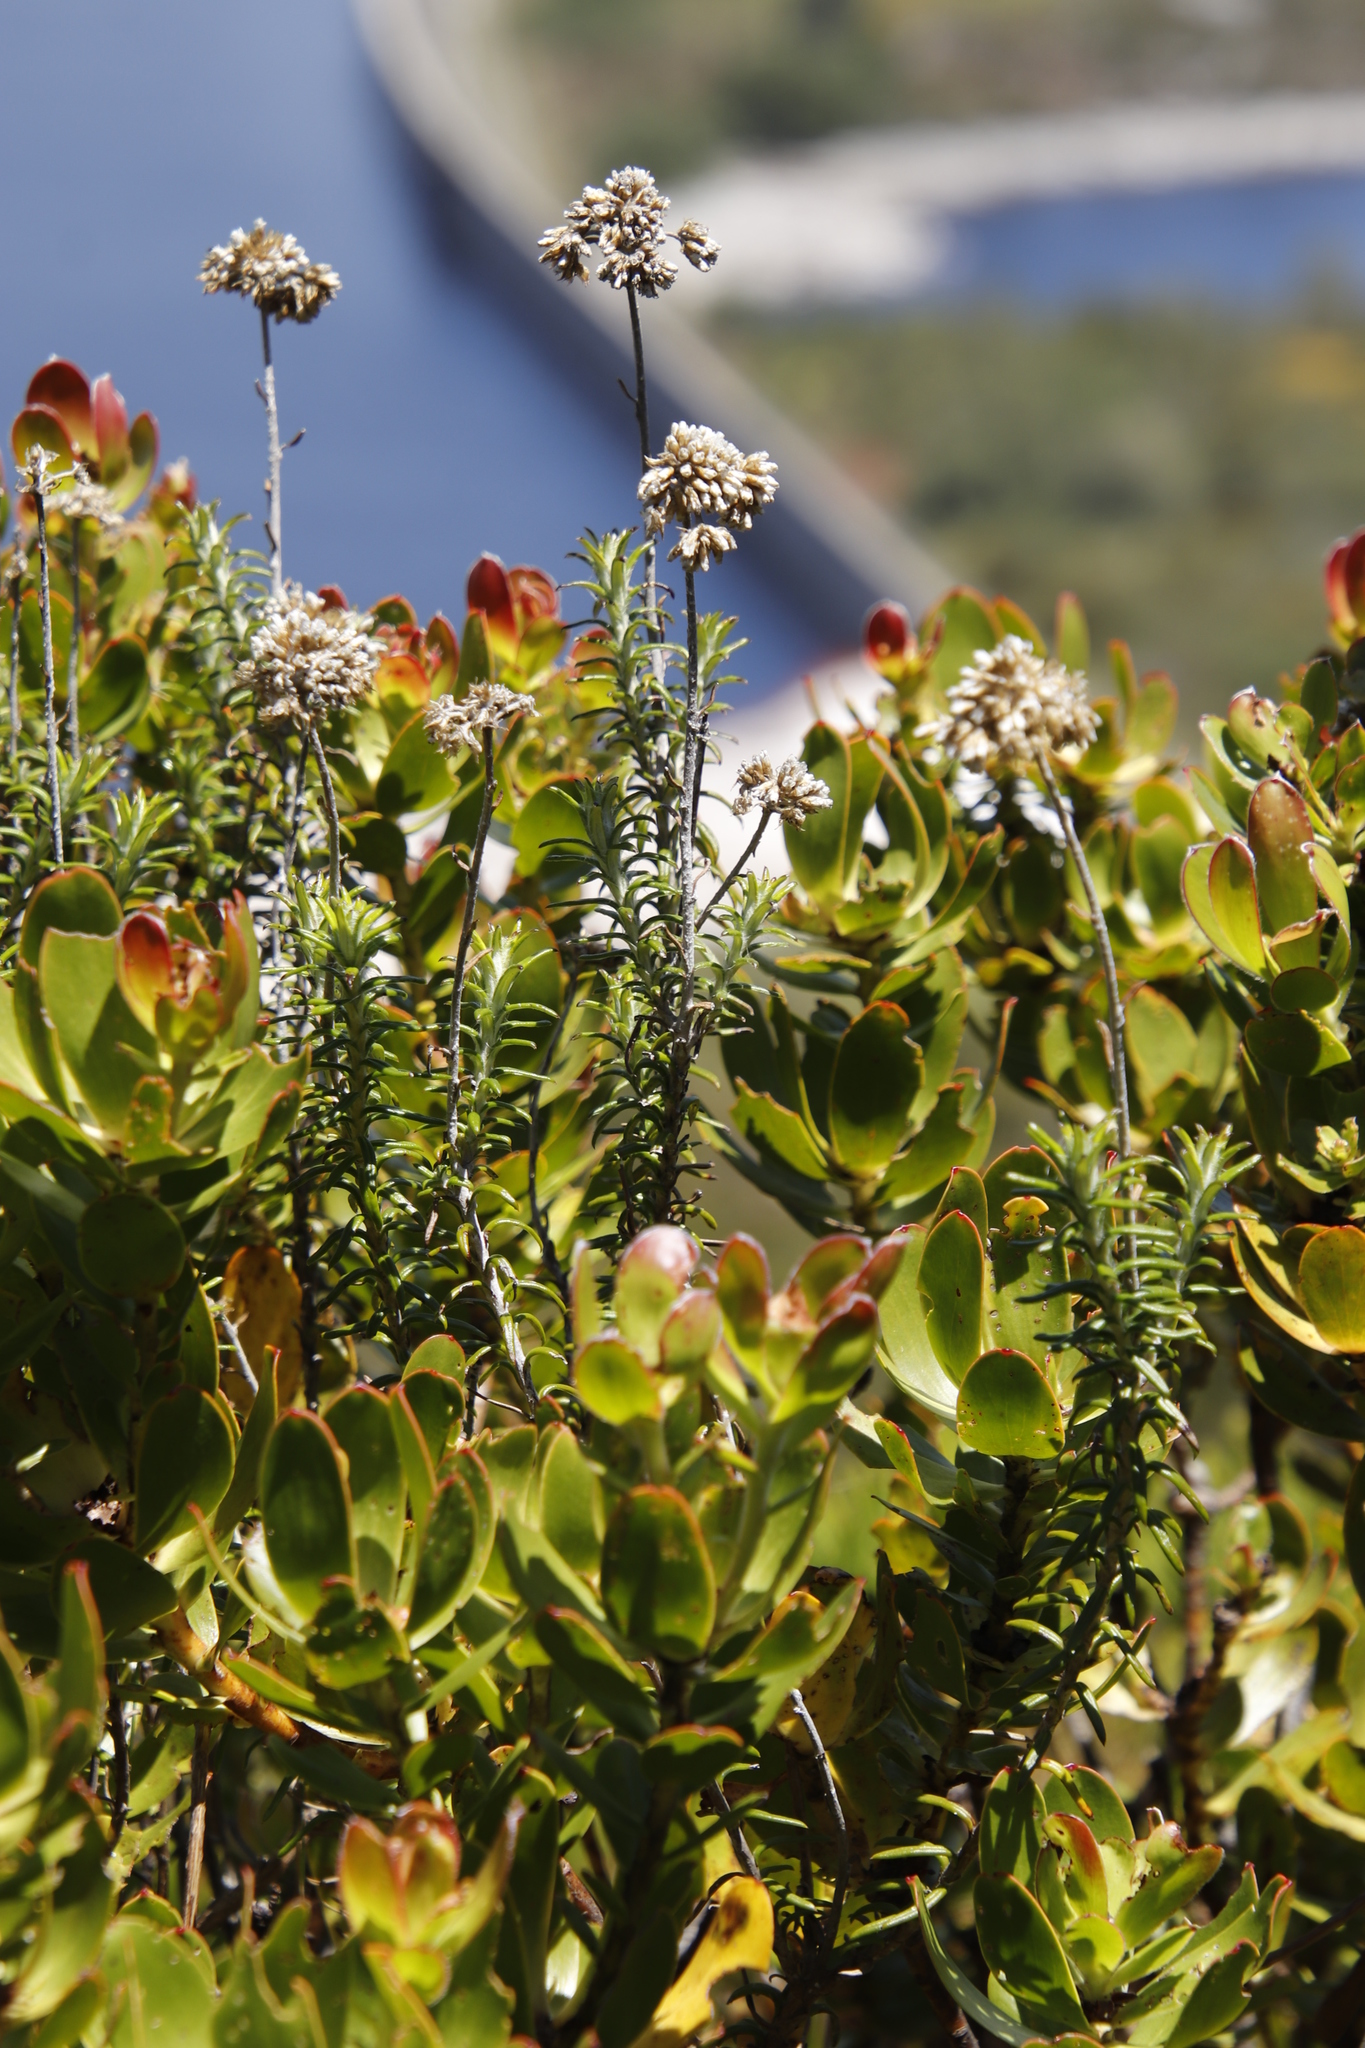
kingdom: Plantae
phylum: Tracheophyta
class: Magnoliopsida
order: Asterales
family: Asteraceae
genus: Anaxeton
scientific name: Anaxeton arborescens
